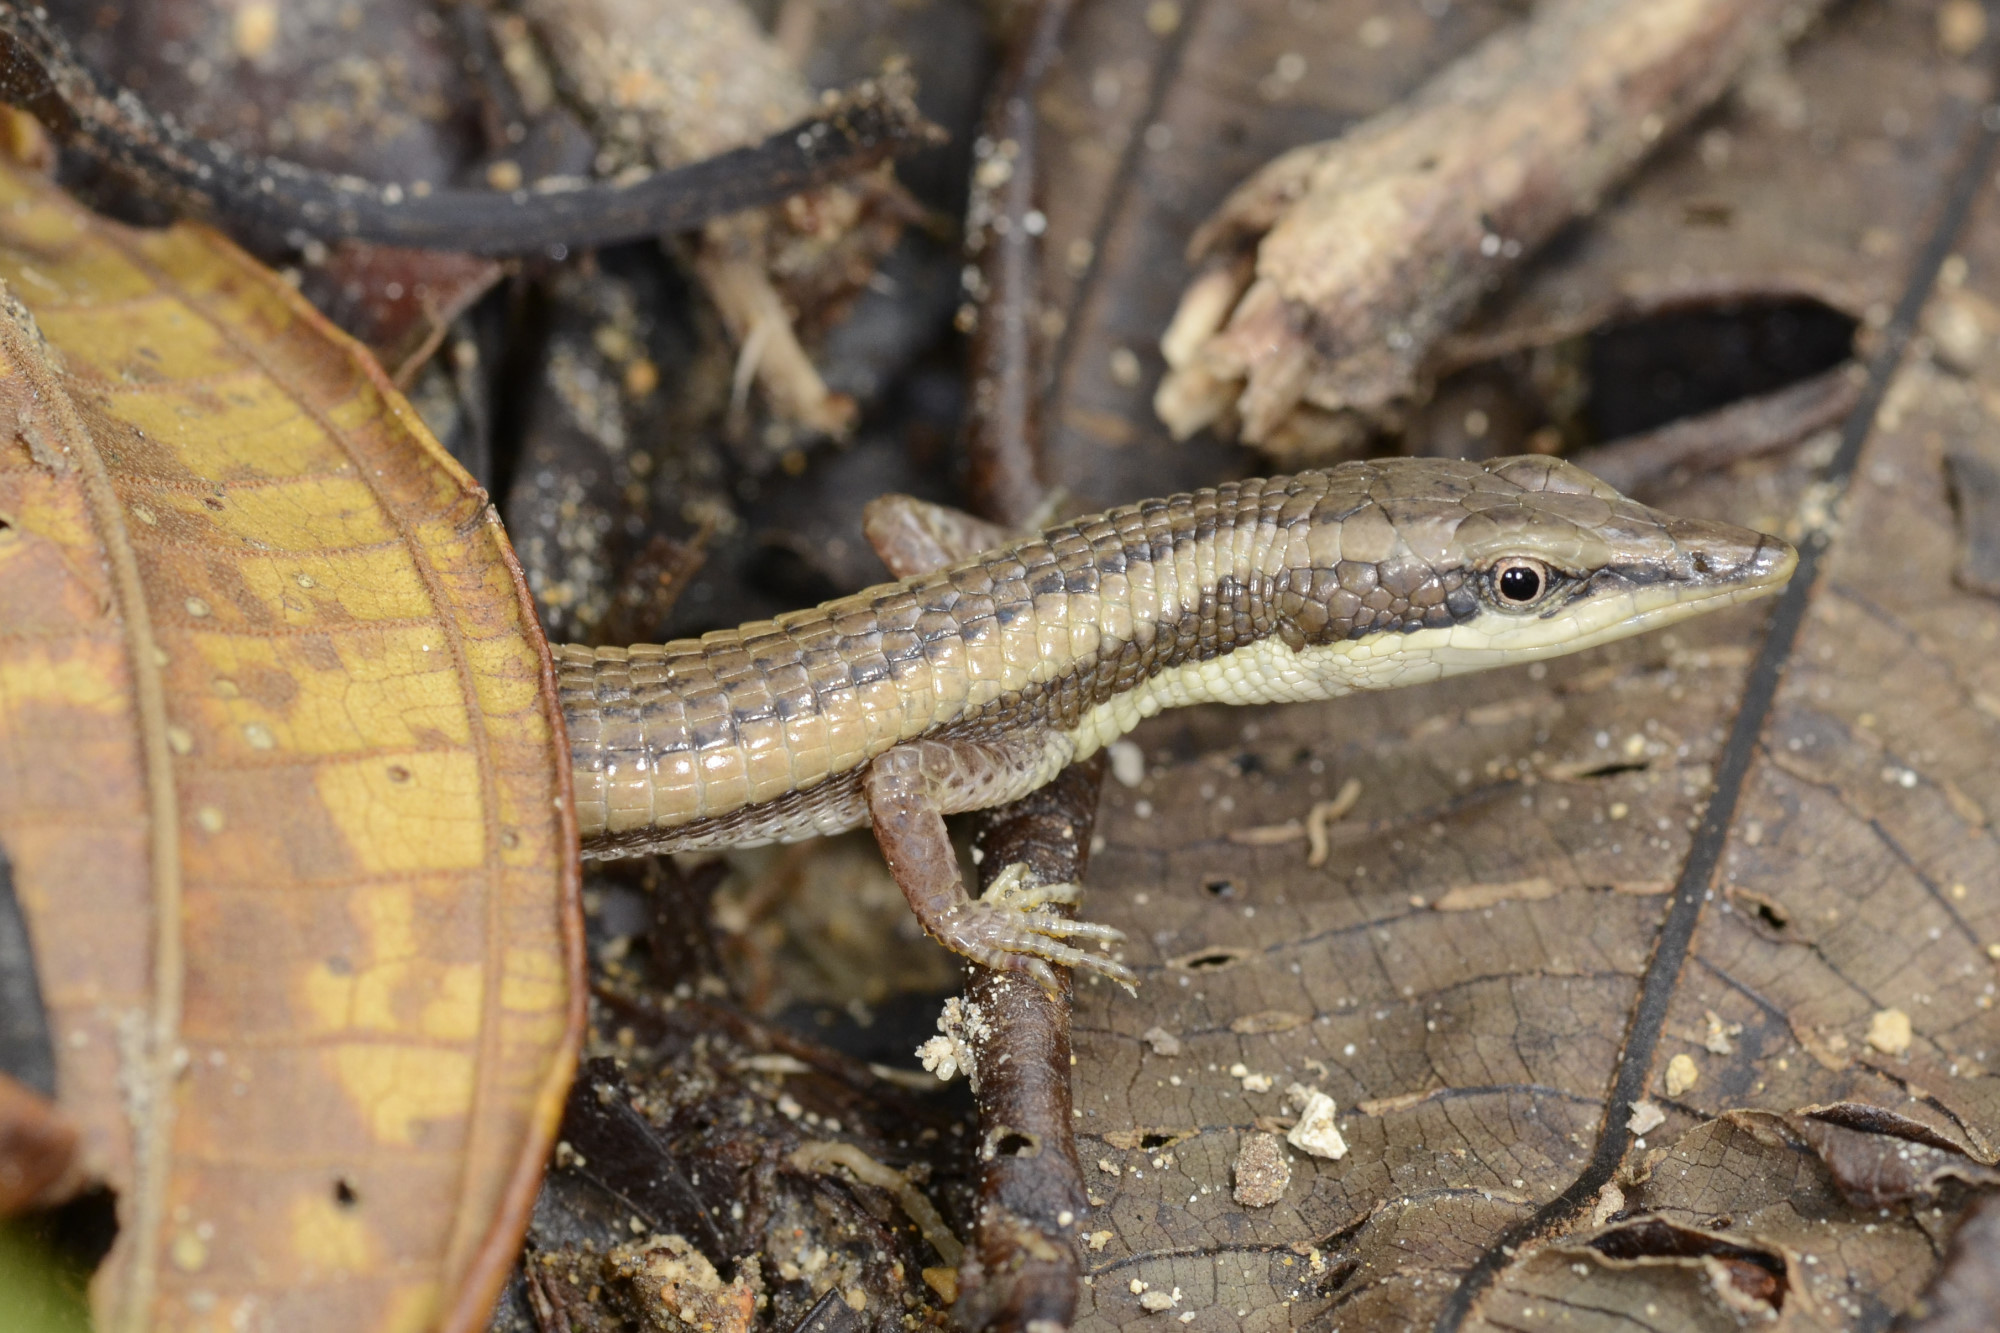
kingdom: Animalia
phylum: Chordata
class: Squamata
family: Gymnophthalmidae
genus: Anadia
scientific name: Anadia rhombifera
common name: Rhombifer anadia
